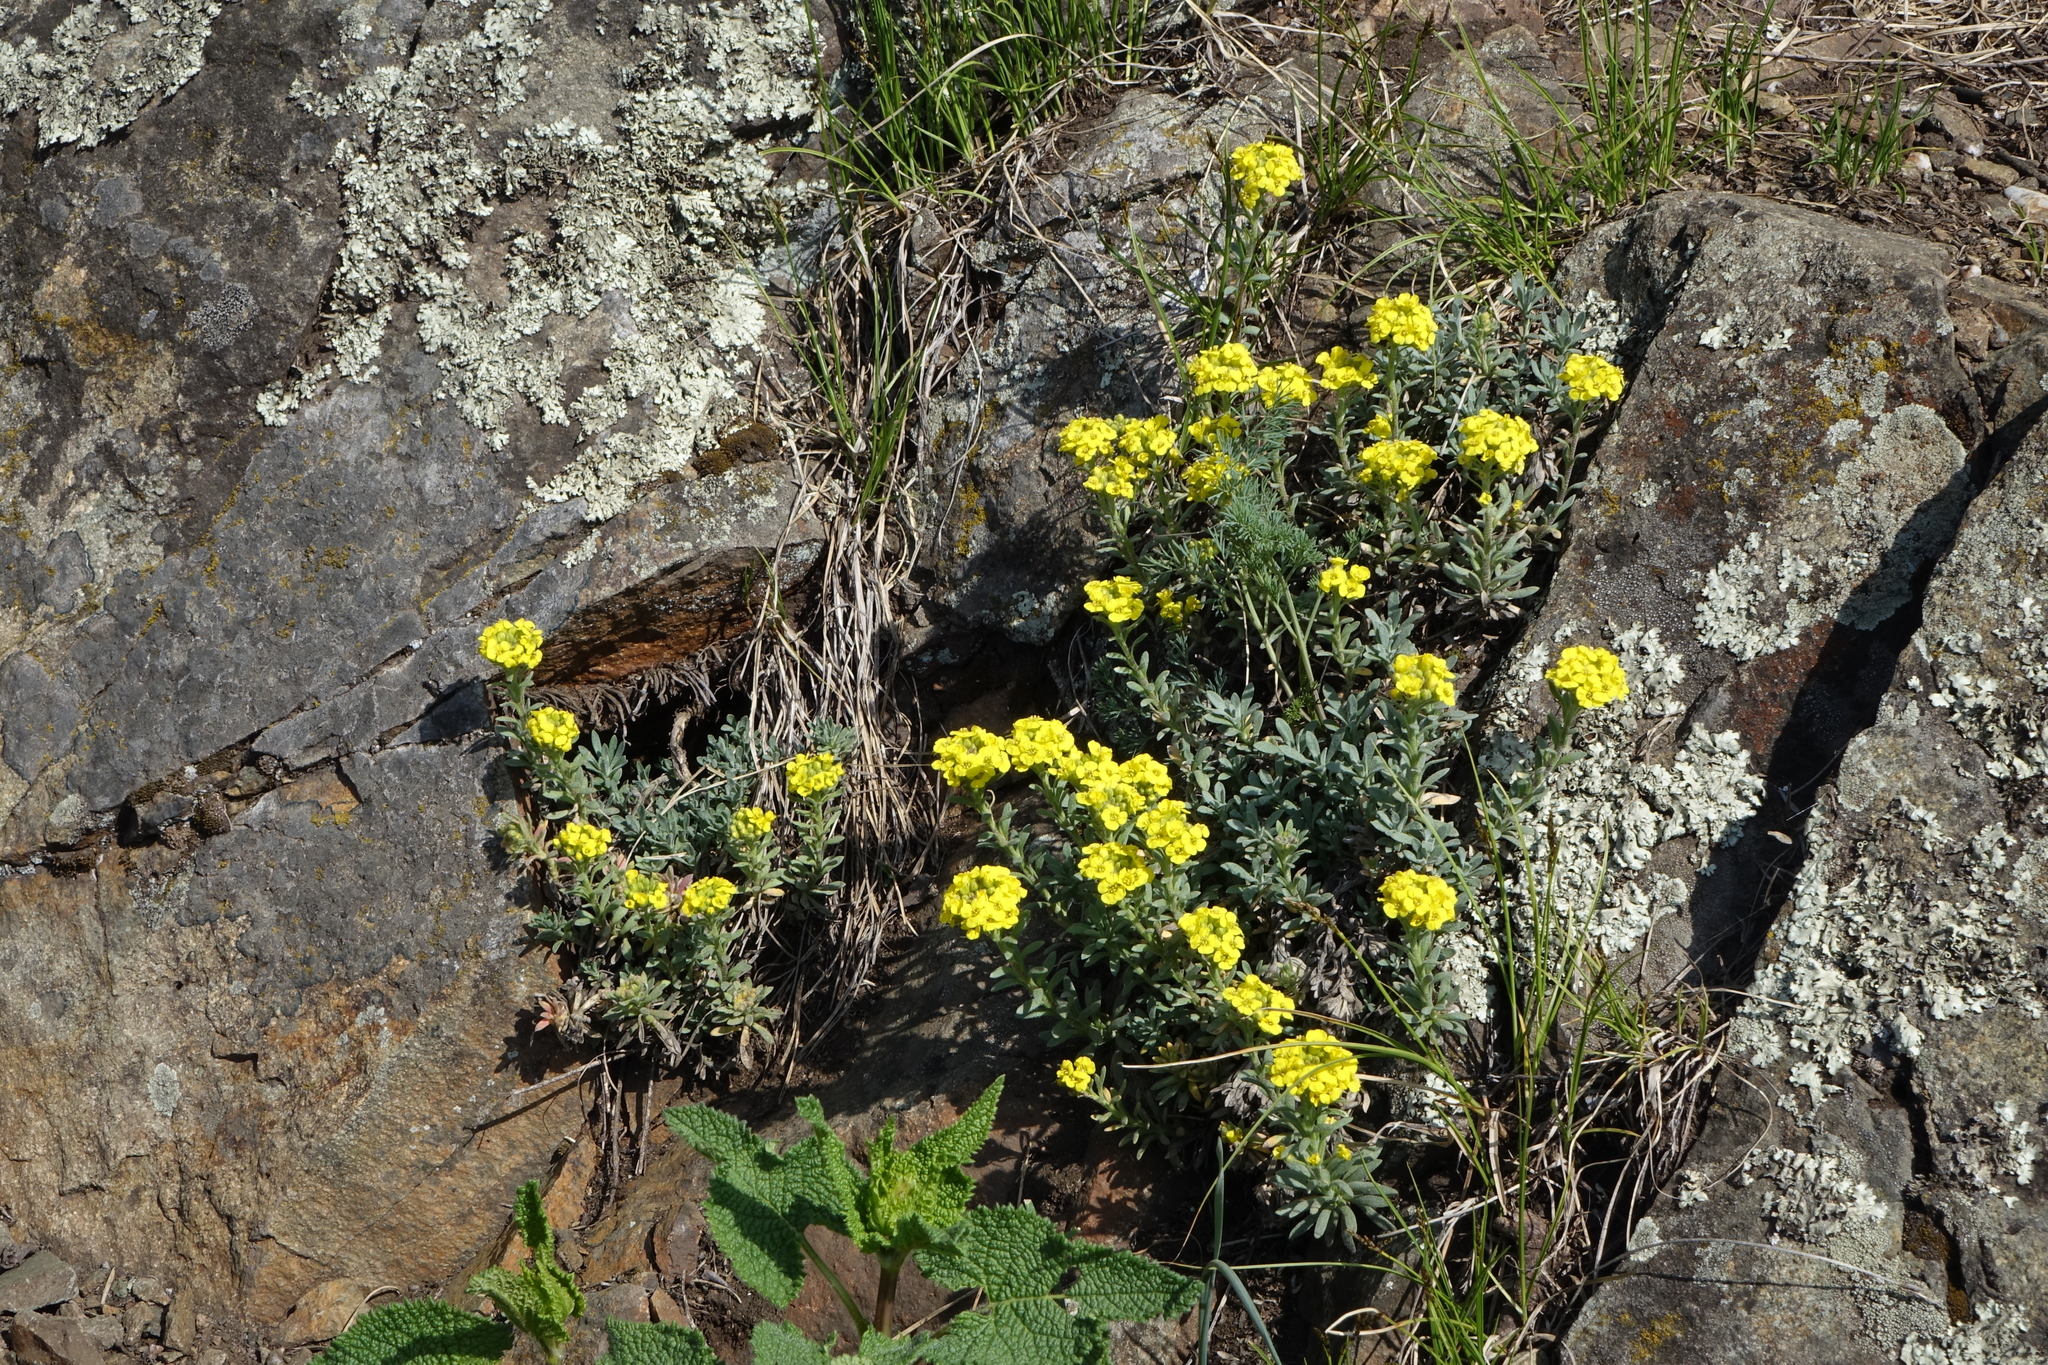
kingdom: Plantae
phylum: Tracheophyta
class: Magnoliopsida
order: Brassicales
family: Brassicaceae
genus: Alyssum
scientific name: Alyssum lenense
